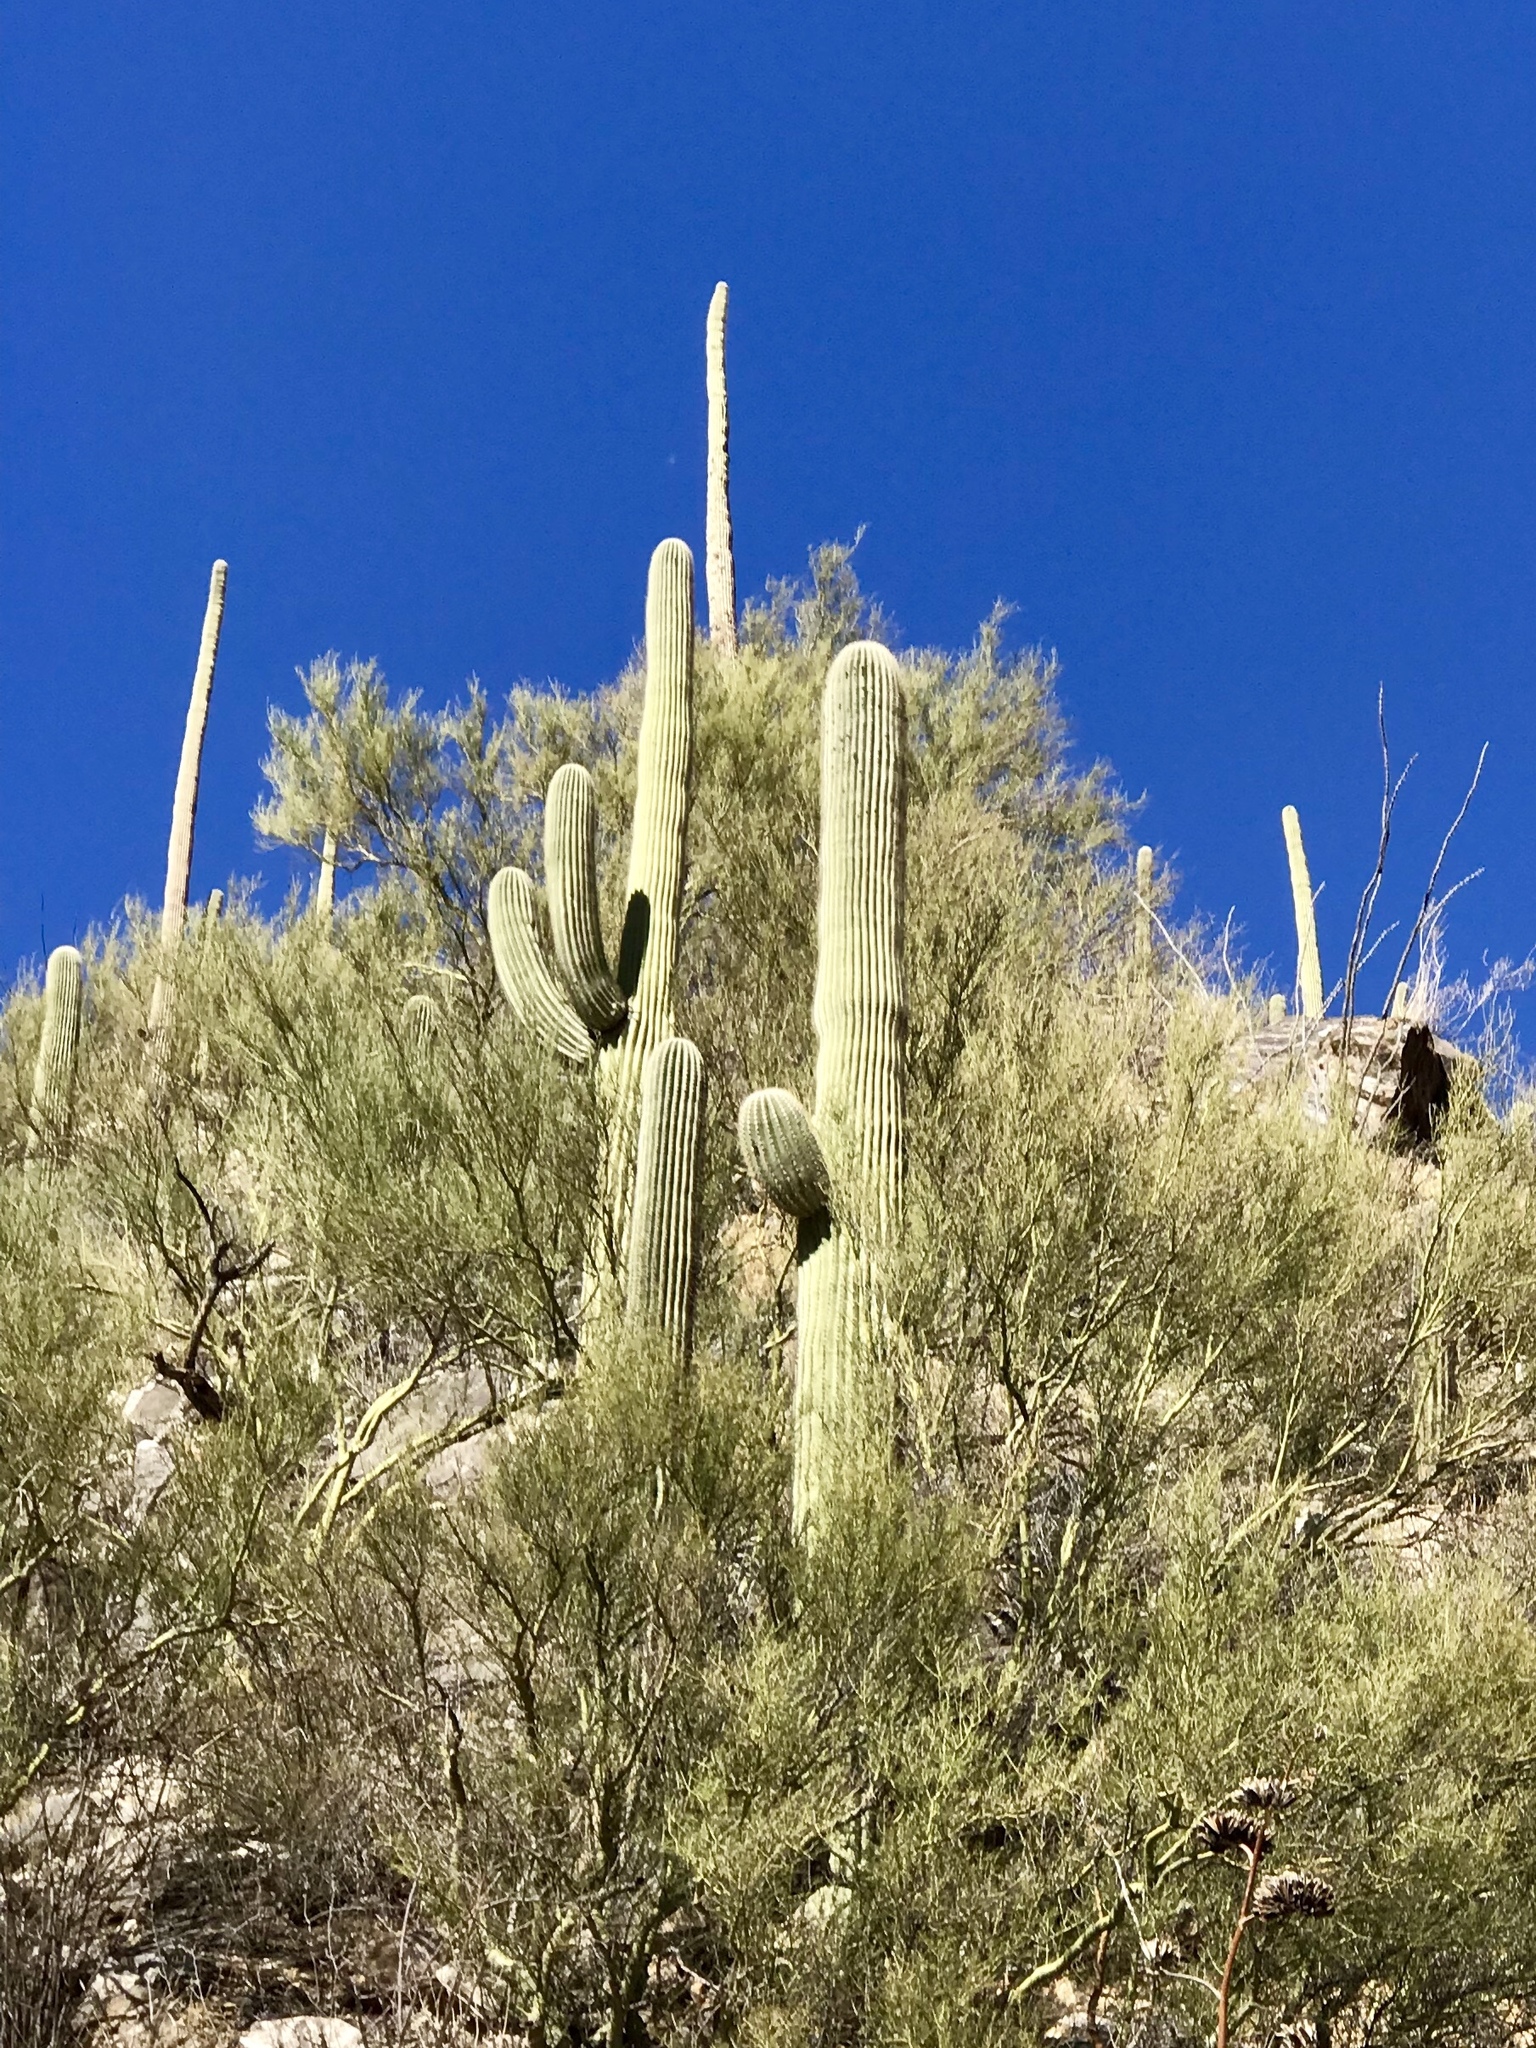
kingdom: Plantae
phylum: Tracheophyta
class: Magnoliopsida
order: Caryophyllales
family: Cactaceae
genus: Carnegiea
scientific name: Carnegiea gigantea
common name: Saguaro
